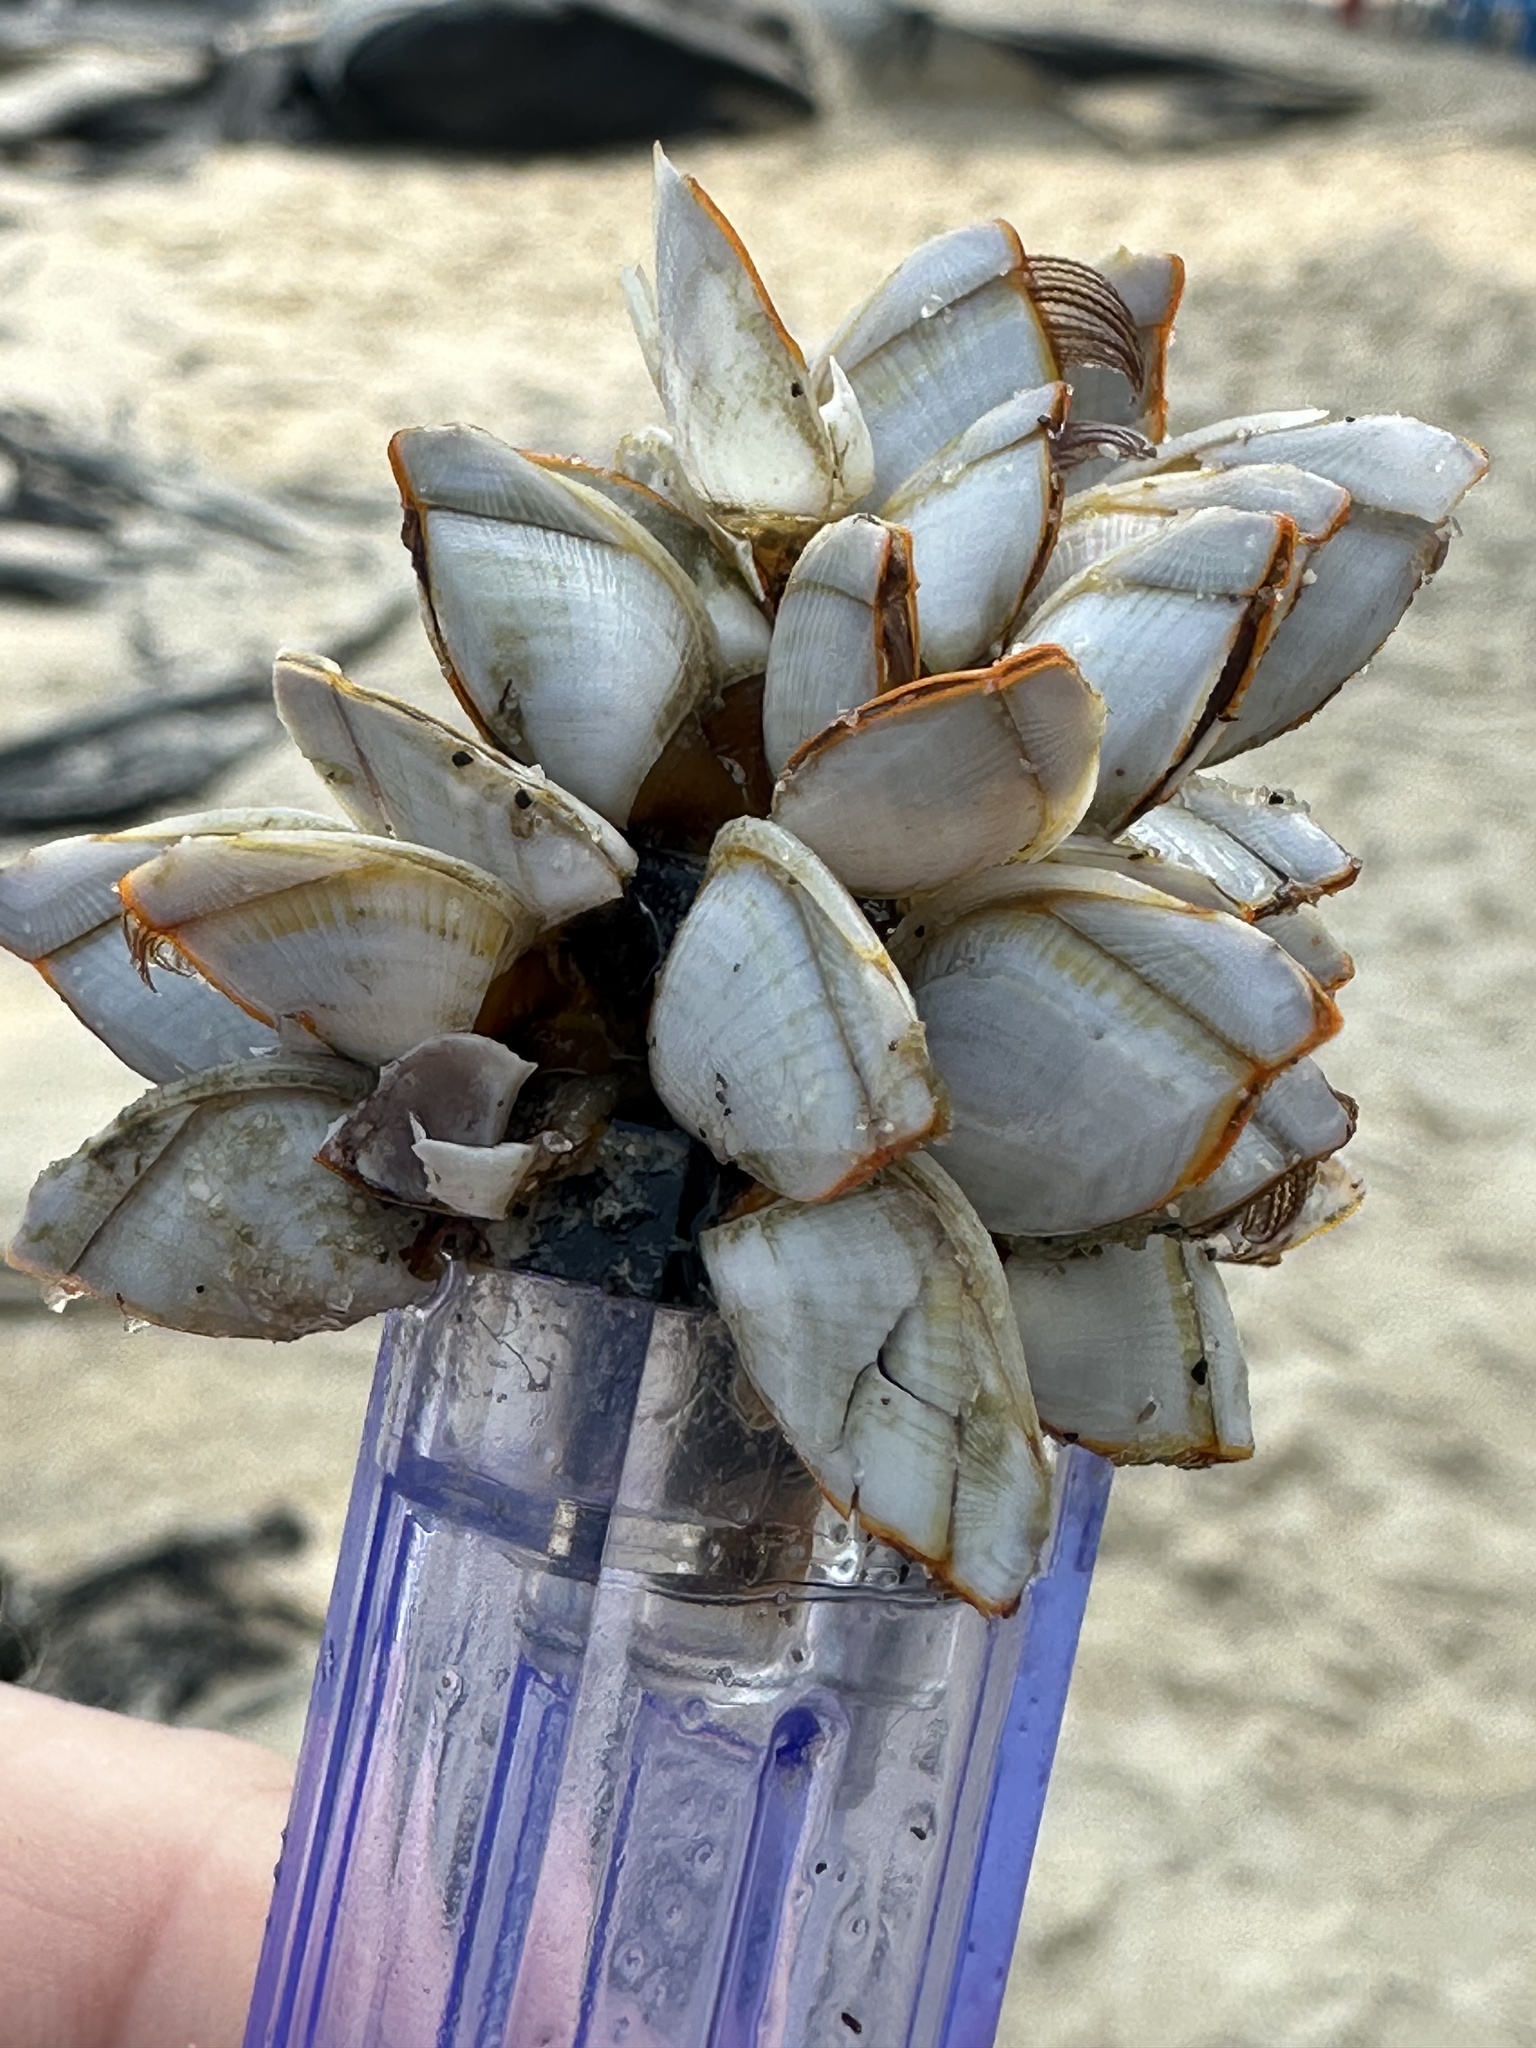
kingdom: Animalia
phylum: Arthropoda
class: Maxillopoda
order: Pedunculata
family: Lepadidae
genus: Lepas
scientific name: Lepas anserifera
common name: Goose barnacle
